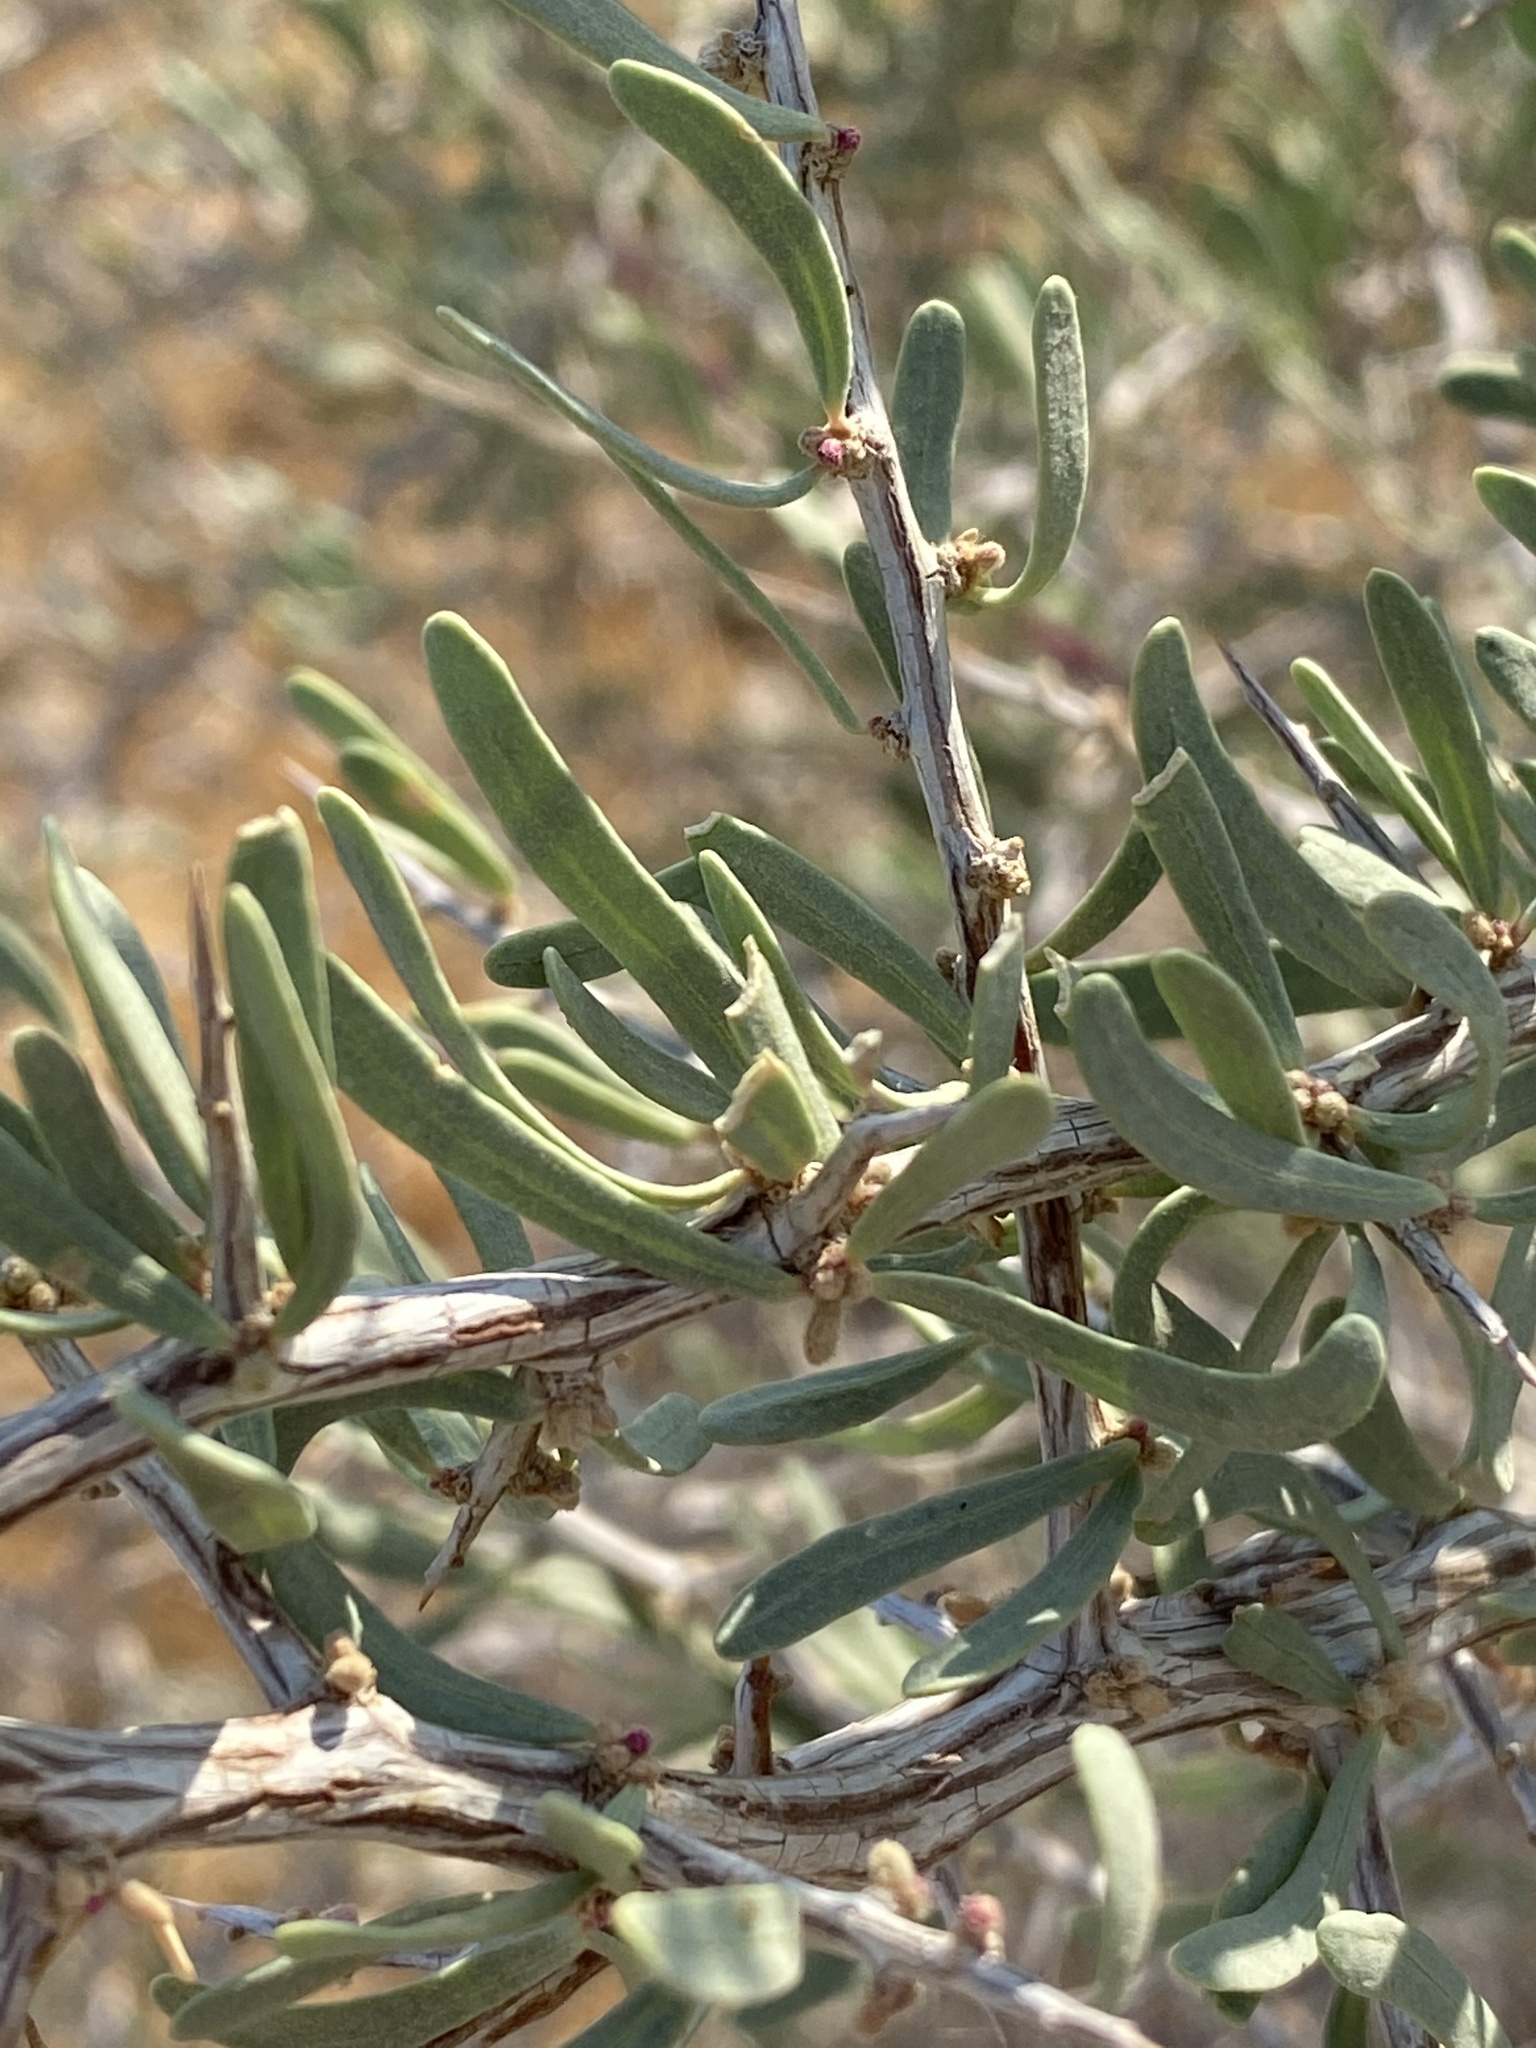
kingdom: Plantae
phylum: Tracheophyta
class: Magnoliopsida
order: Caryophyllales
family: Nyctaginaceae
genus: Phaeoptilum
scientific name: Phaeoptilum spinosum
